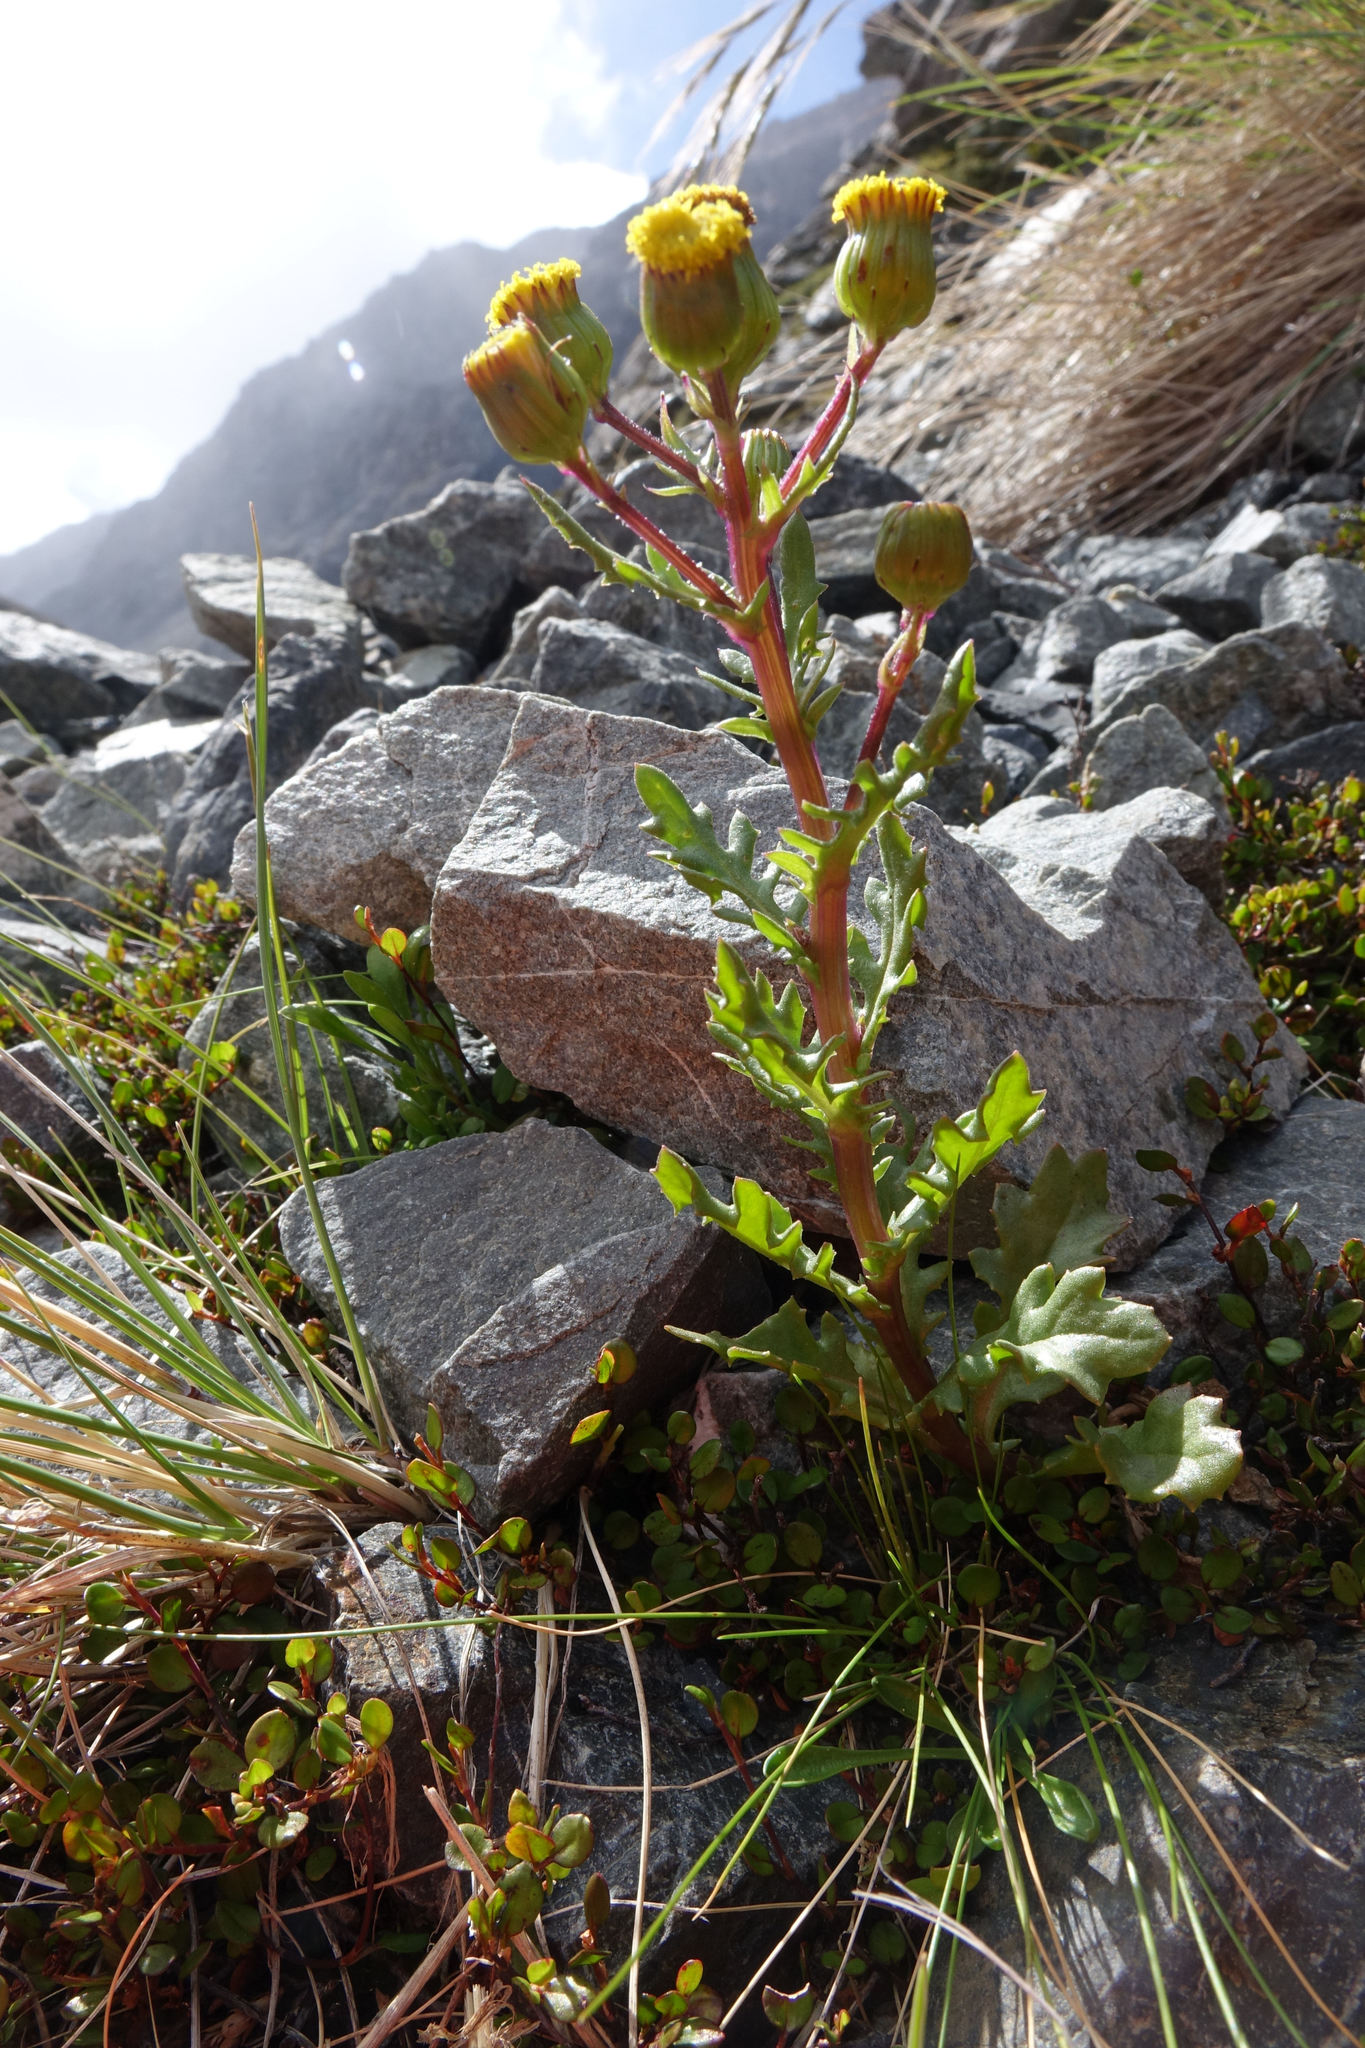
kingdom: Plantae
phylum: Tracheophyta
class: Magnoliopsida
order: Asterales
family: Asteraceae
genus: Senecio
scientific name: Senecio matatini
